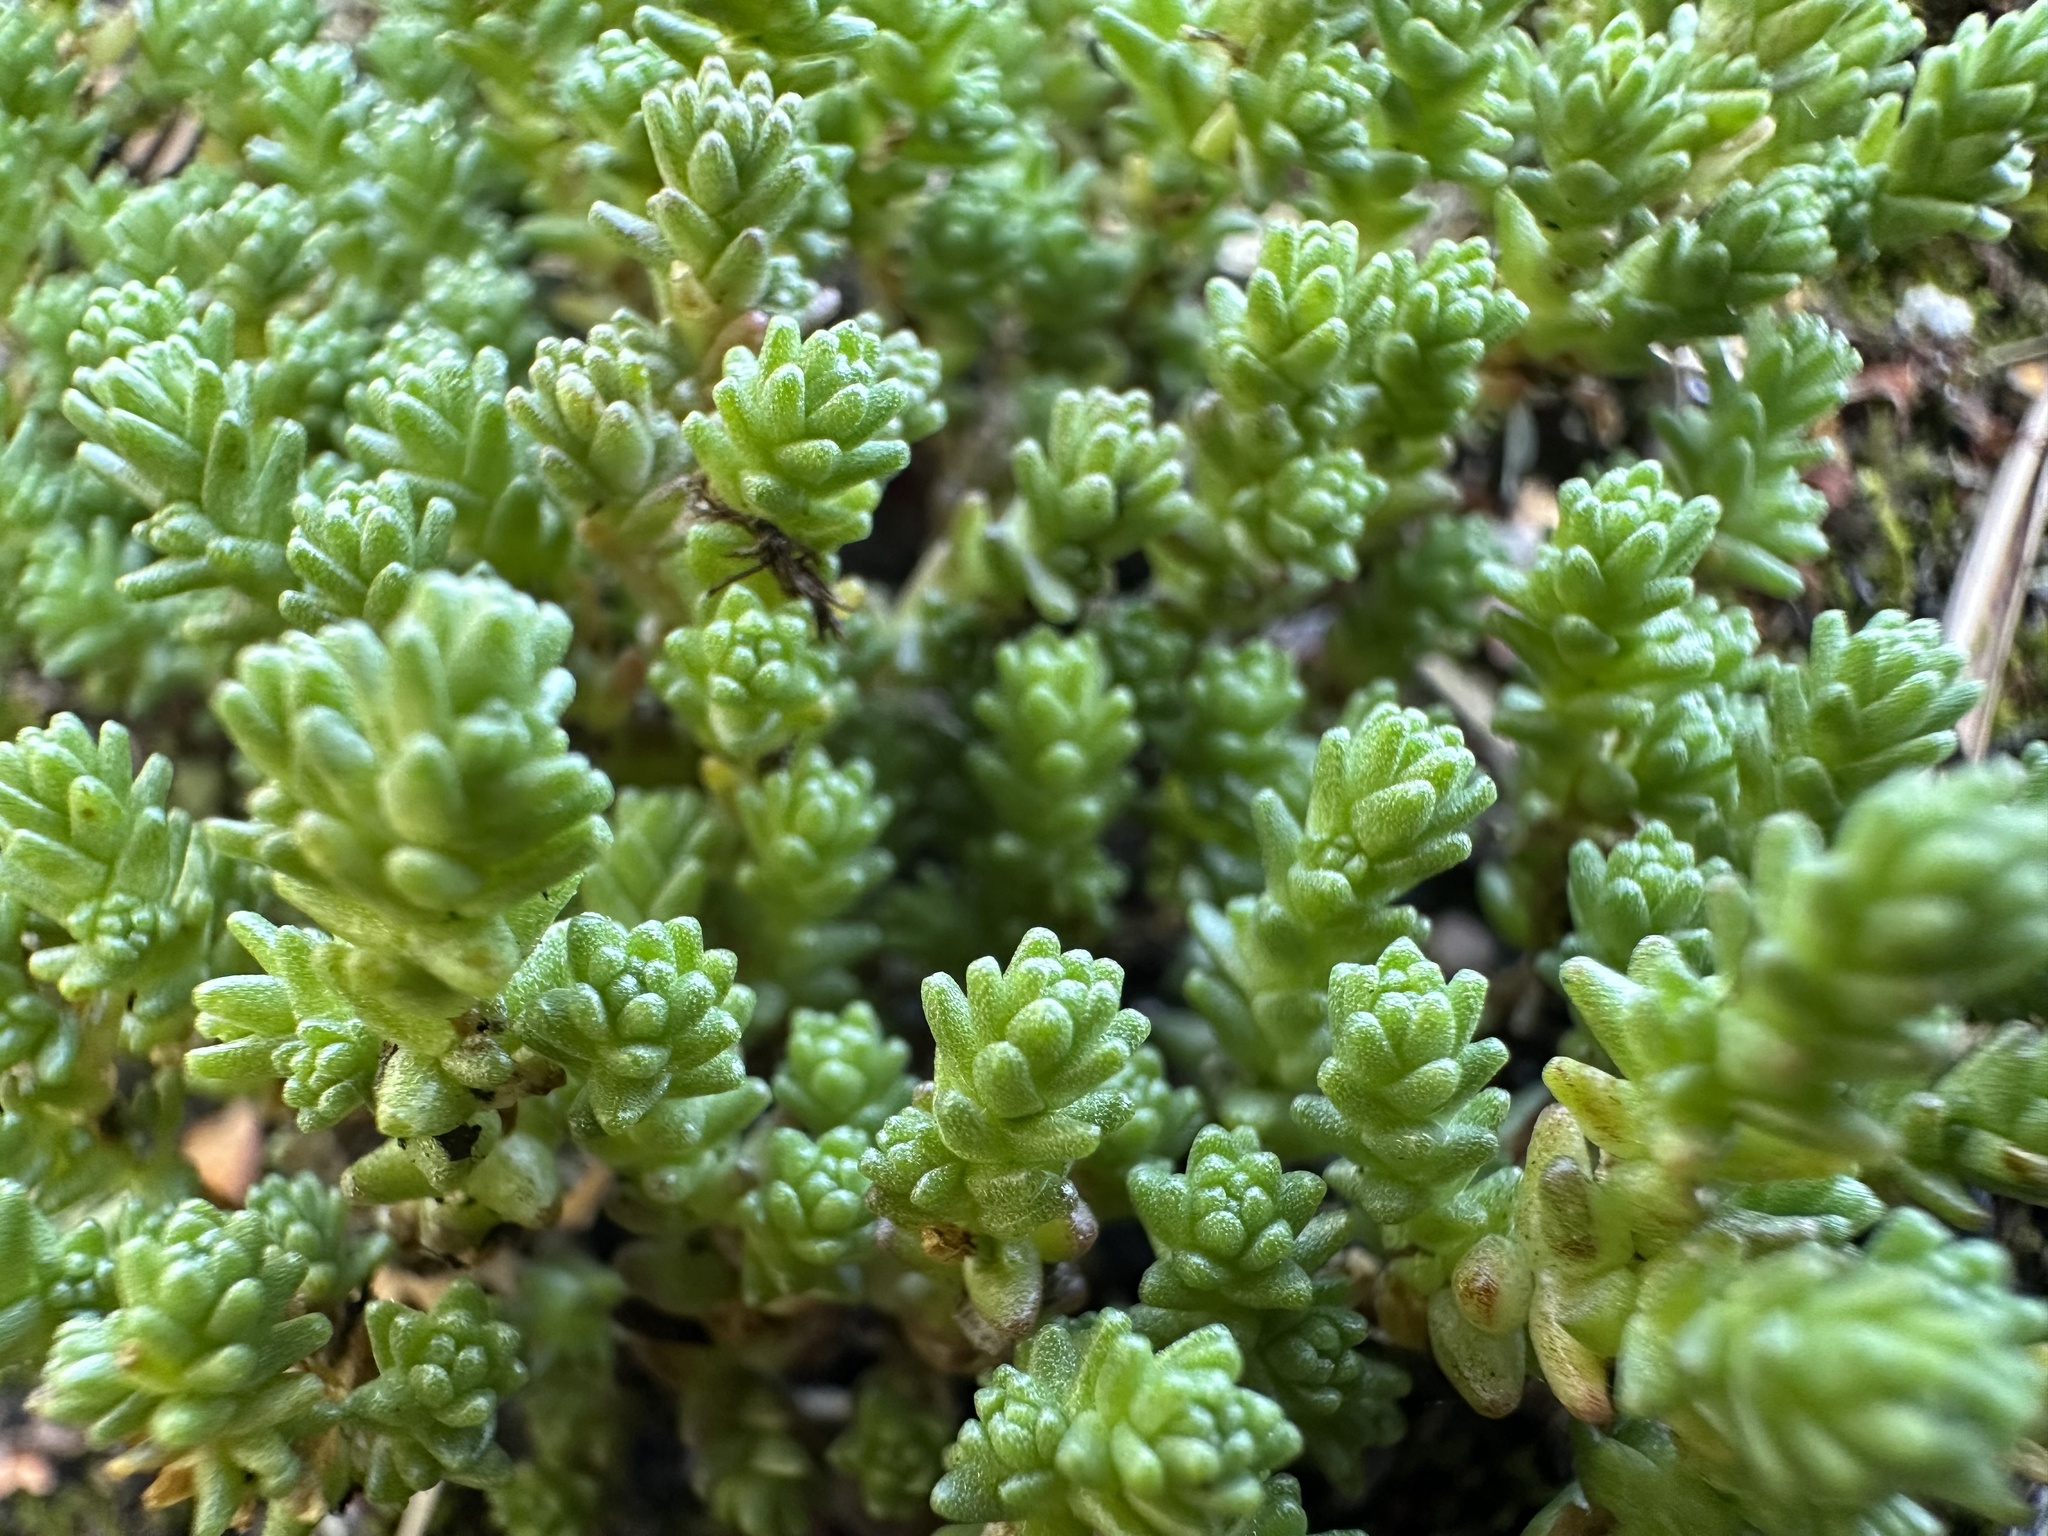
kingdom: Plantae
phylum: Tracheophyta
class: Magnoliopsida
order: Saxifragales
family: Crassulaceae
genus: Sedum
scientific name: Sedum acre
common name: Biting stonecrop
